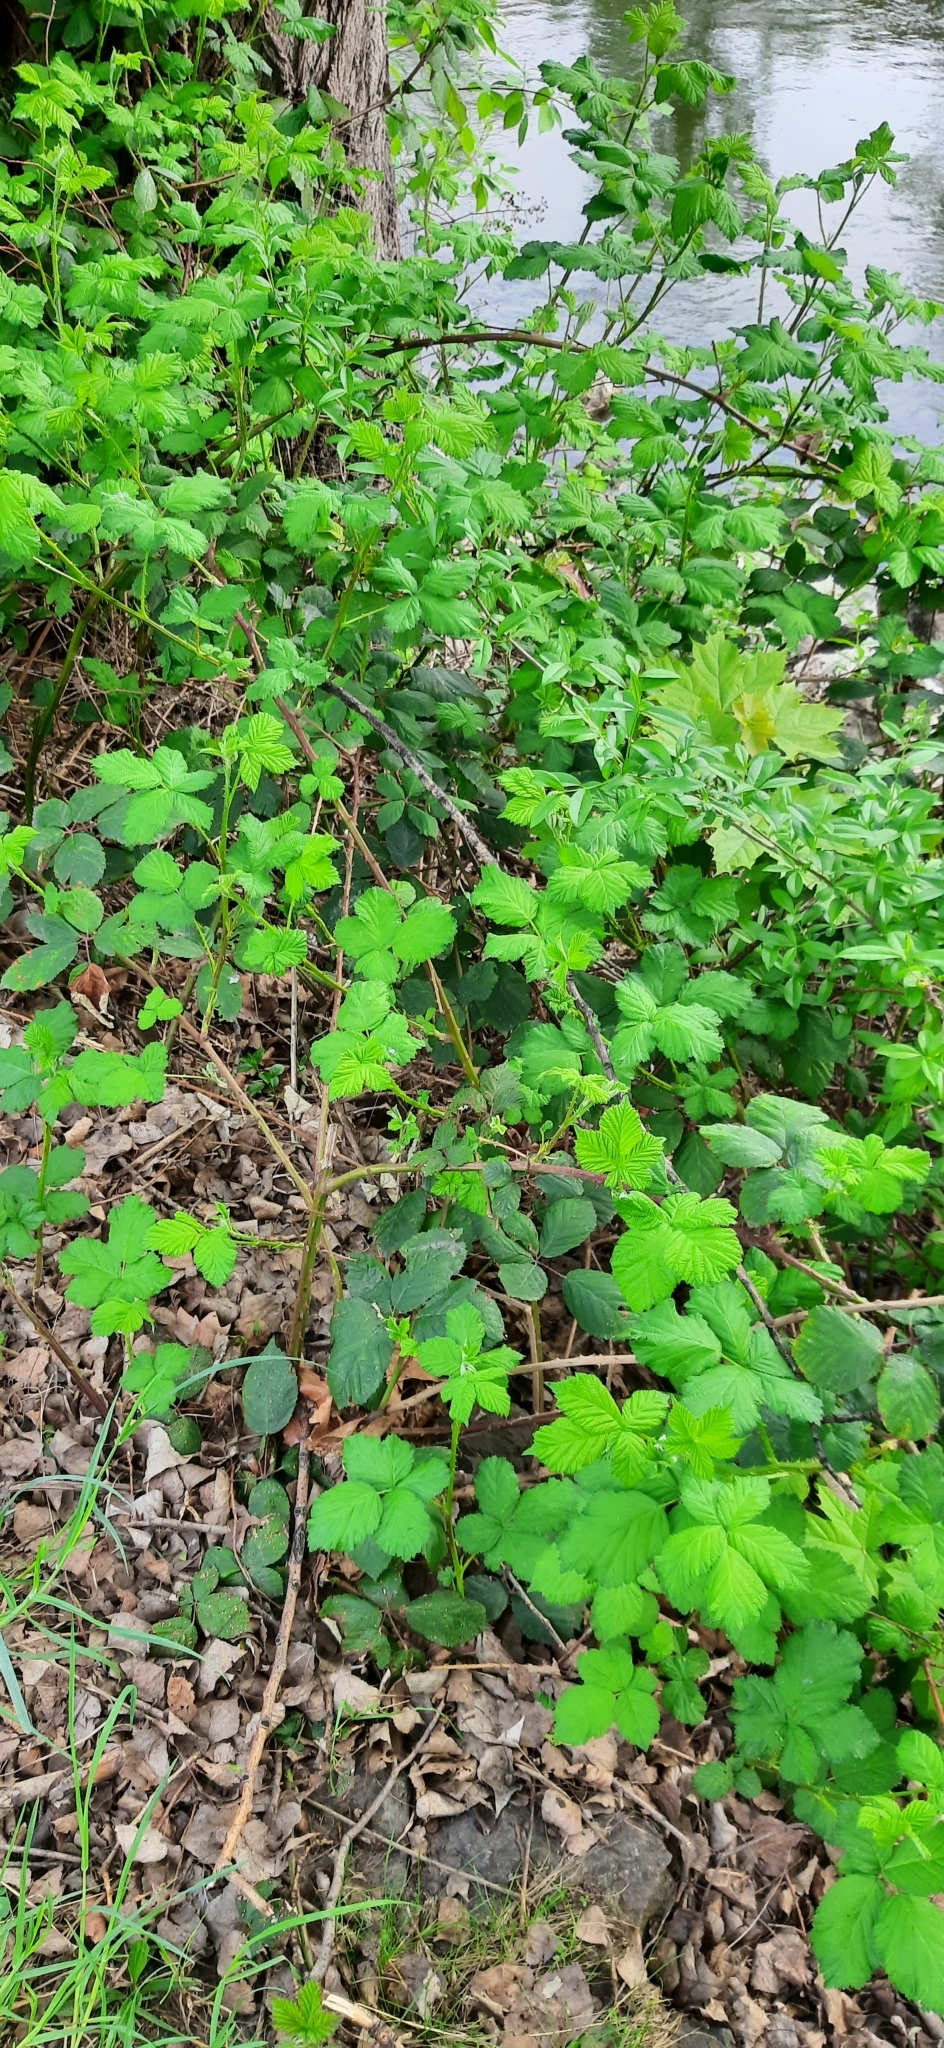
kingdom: Plantae
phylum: Tracheophyta
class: Magnoliopsida
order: Rosales
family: Rosaceae
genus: Rubus
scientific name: Rubus
